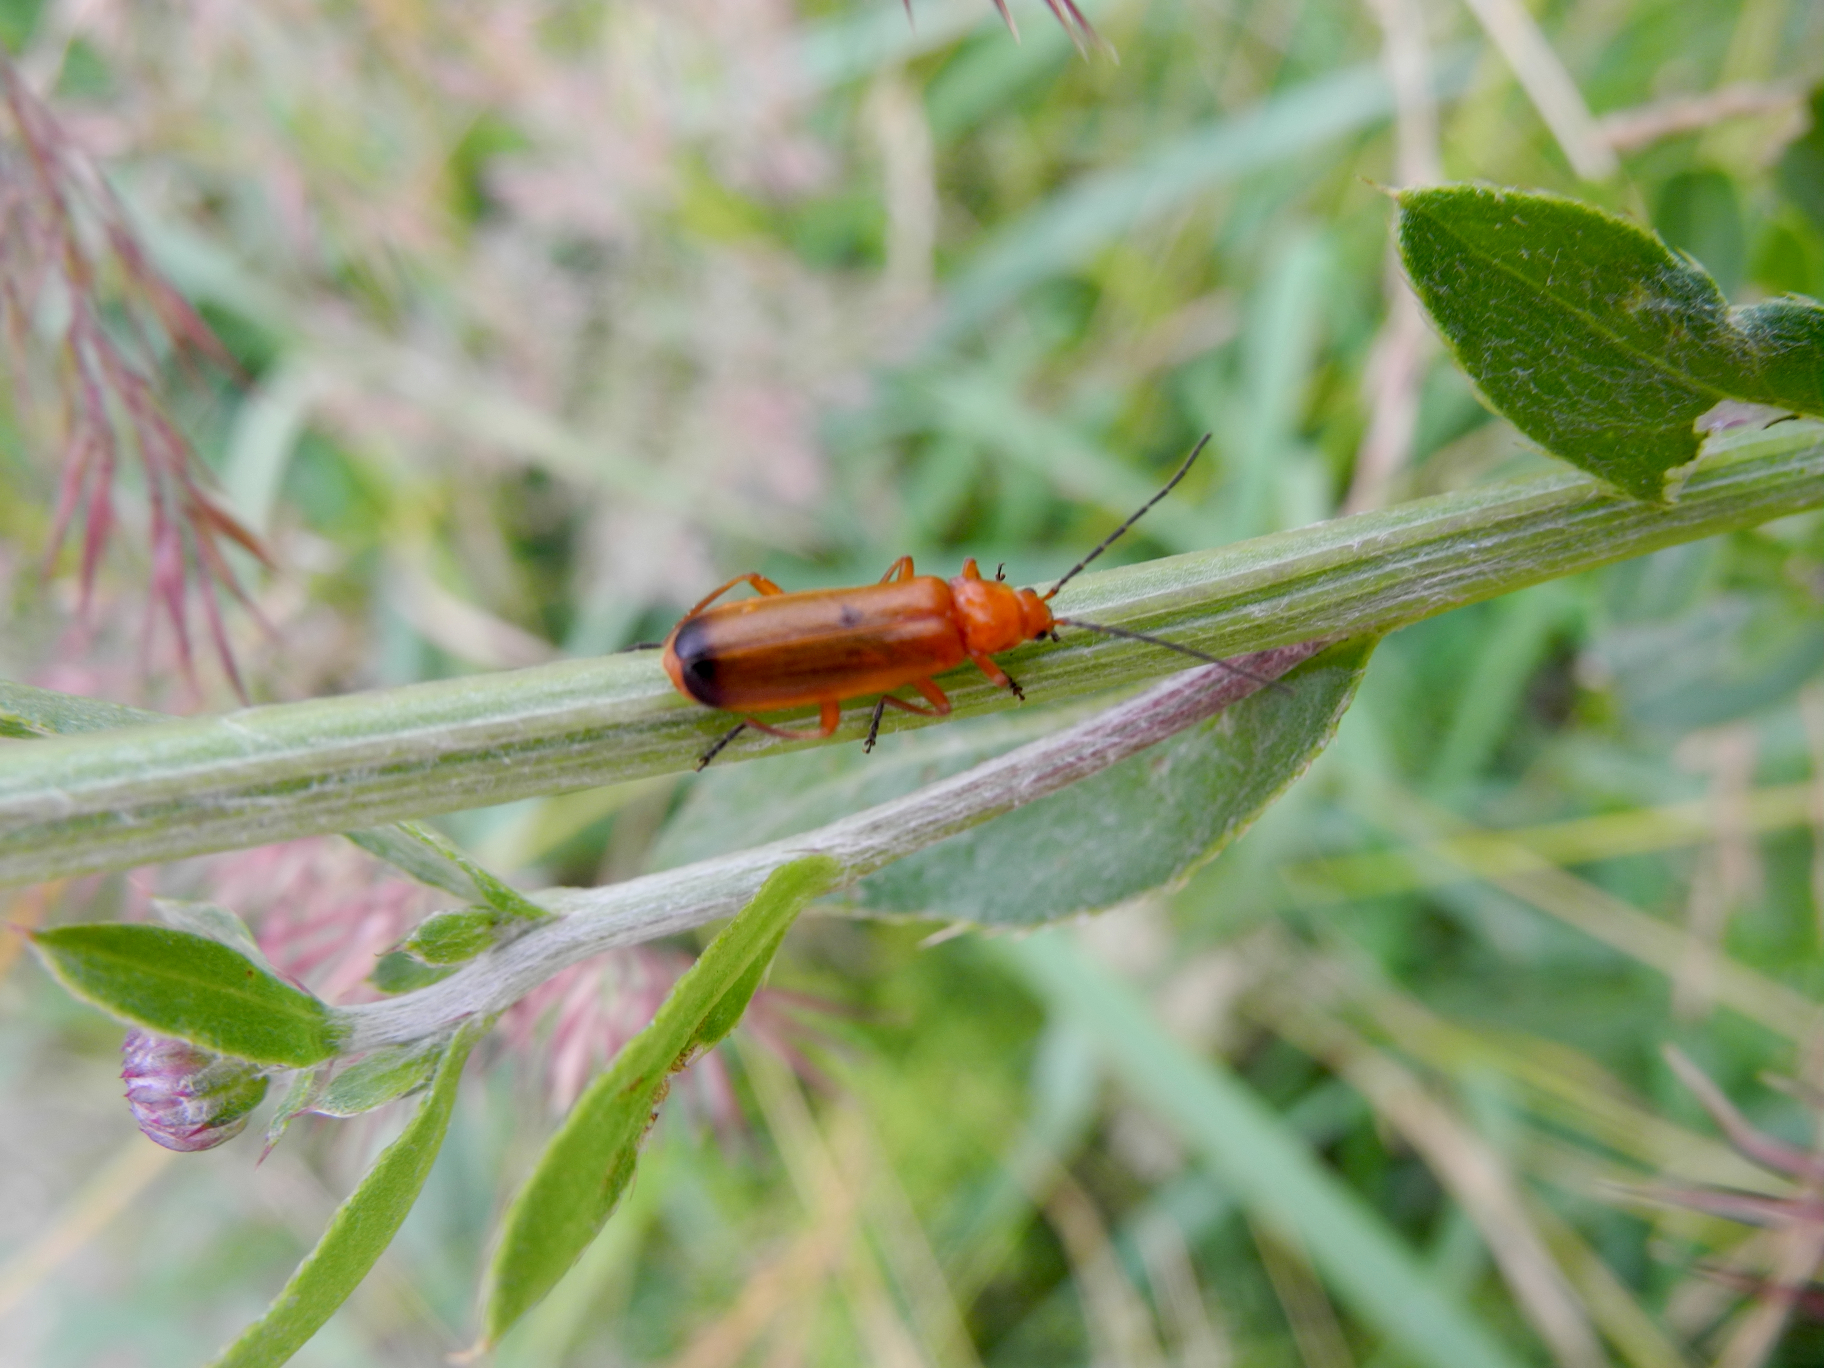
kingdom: Animalia
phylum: Arthropoda
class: Insecta
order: Coleoptera
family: Cantharidae
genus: Rhagonycha
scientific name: Rhagonycha fulva
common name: Common red soldier beetle
